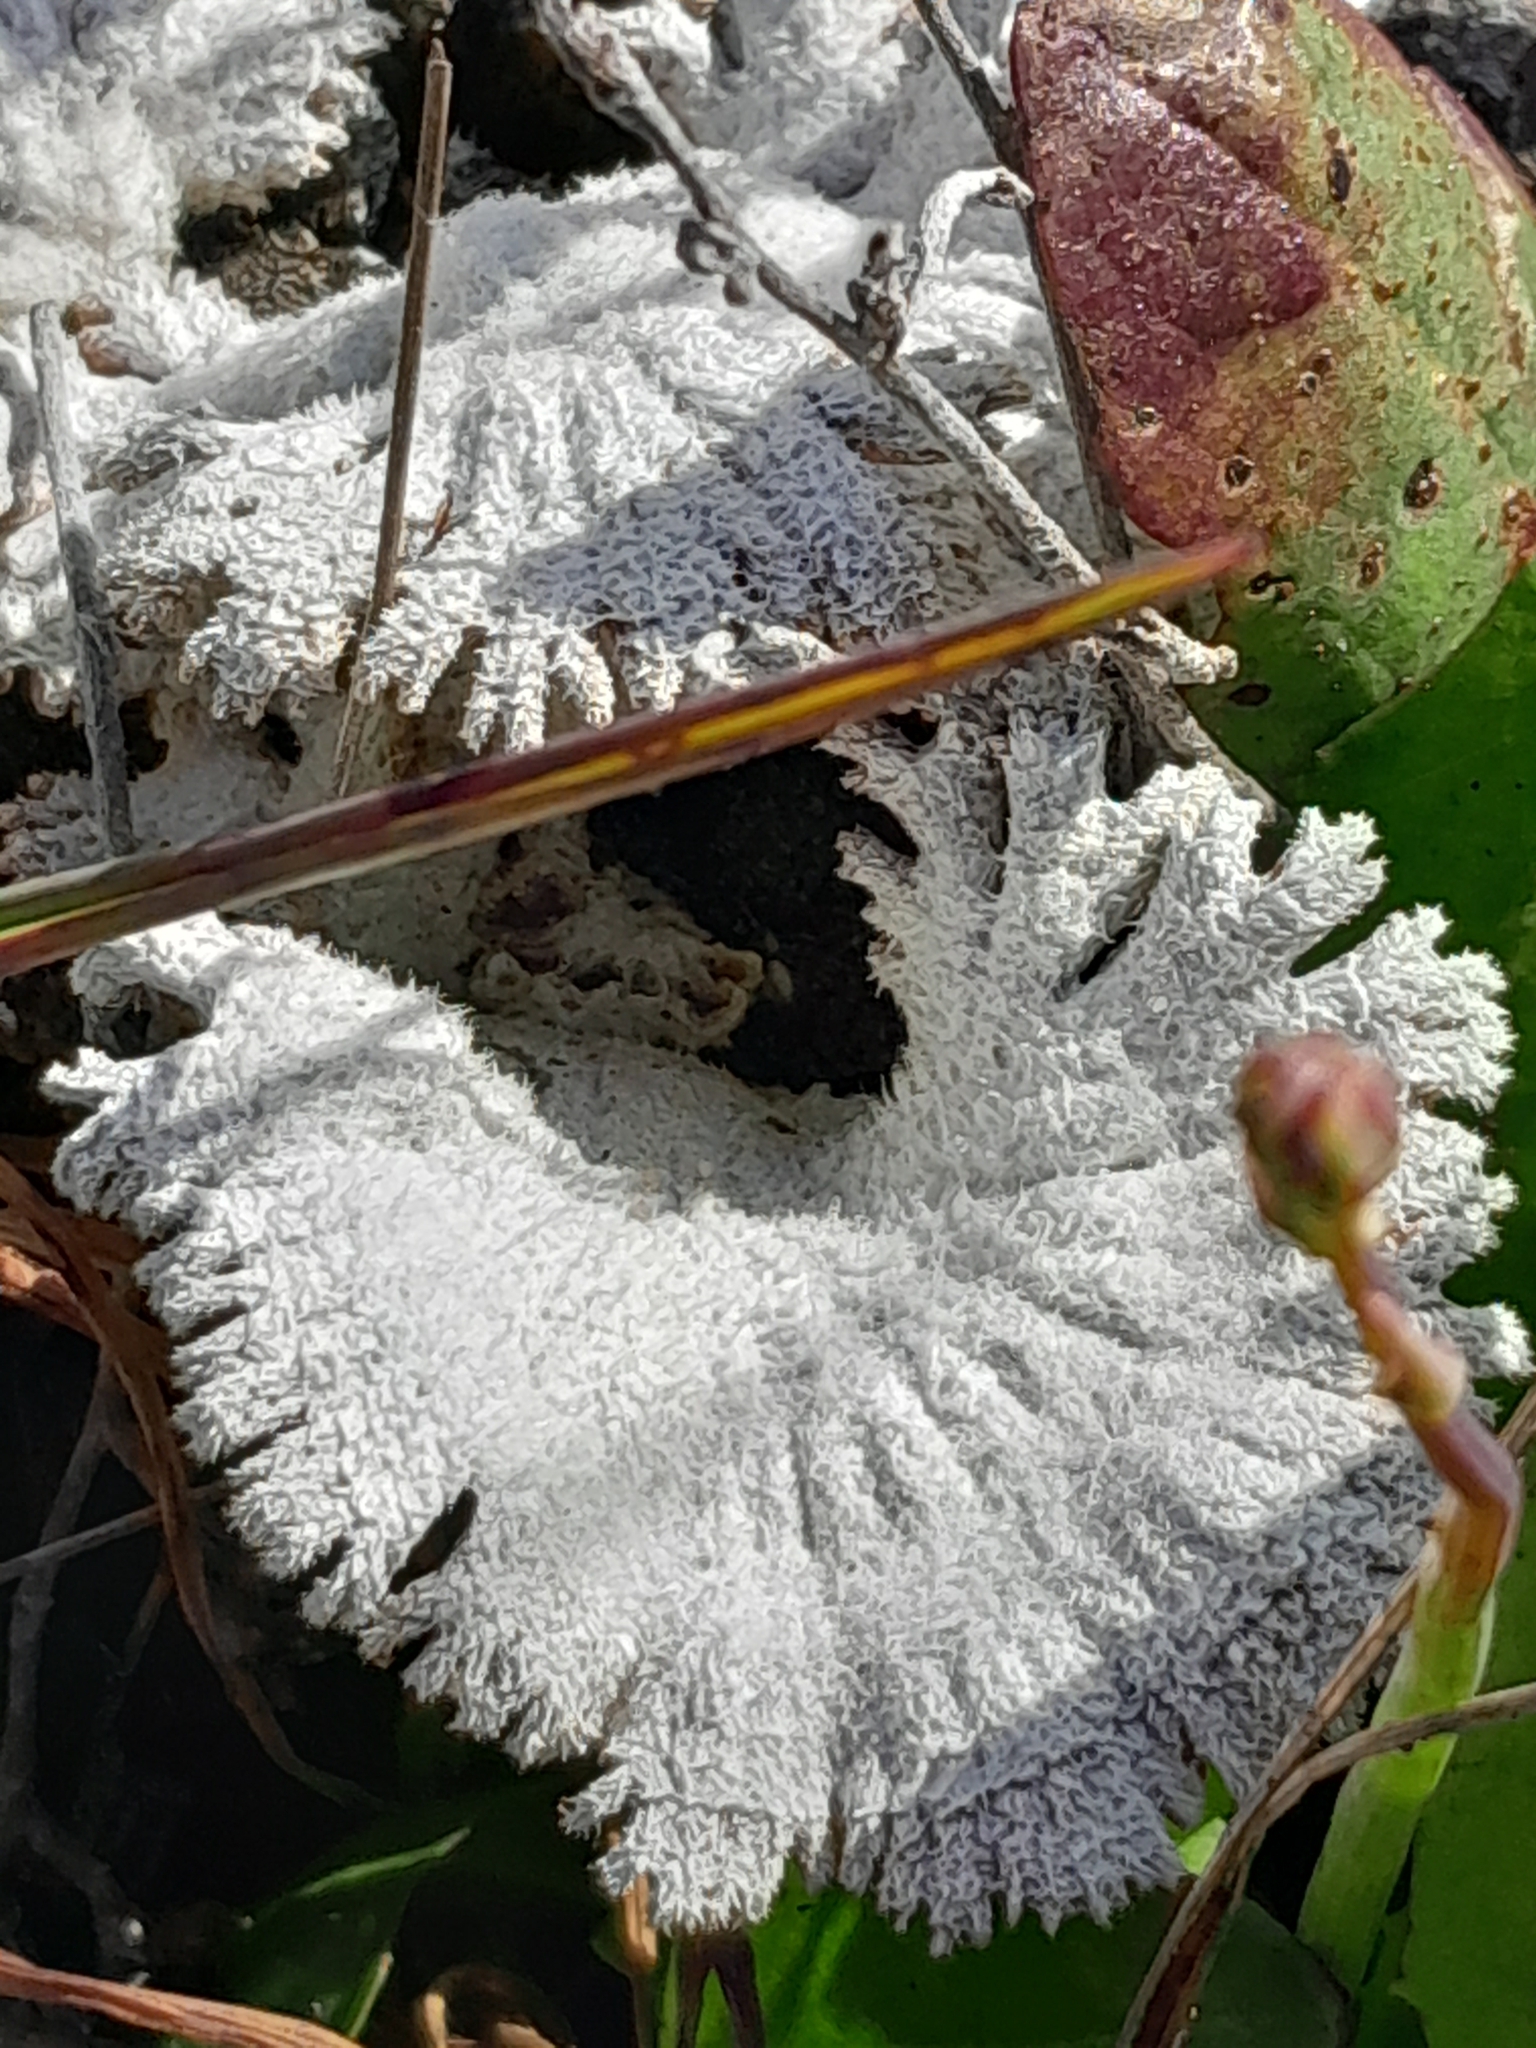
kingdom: Fungi
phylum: Basidiomycota
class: Agaricomycetes
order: Agaricales
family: Schizophyllaceae
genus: Schizophyllum
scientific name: Schizophyllum commune
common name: Common porecrust
